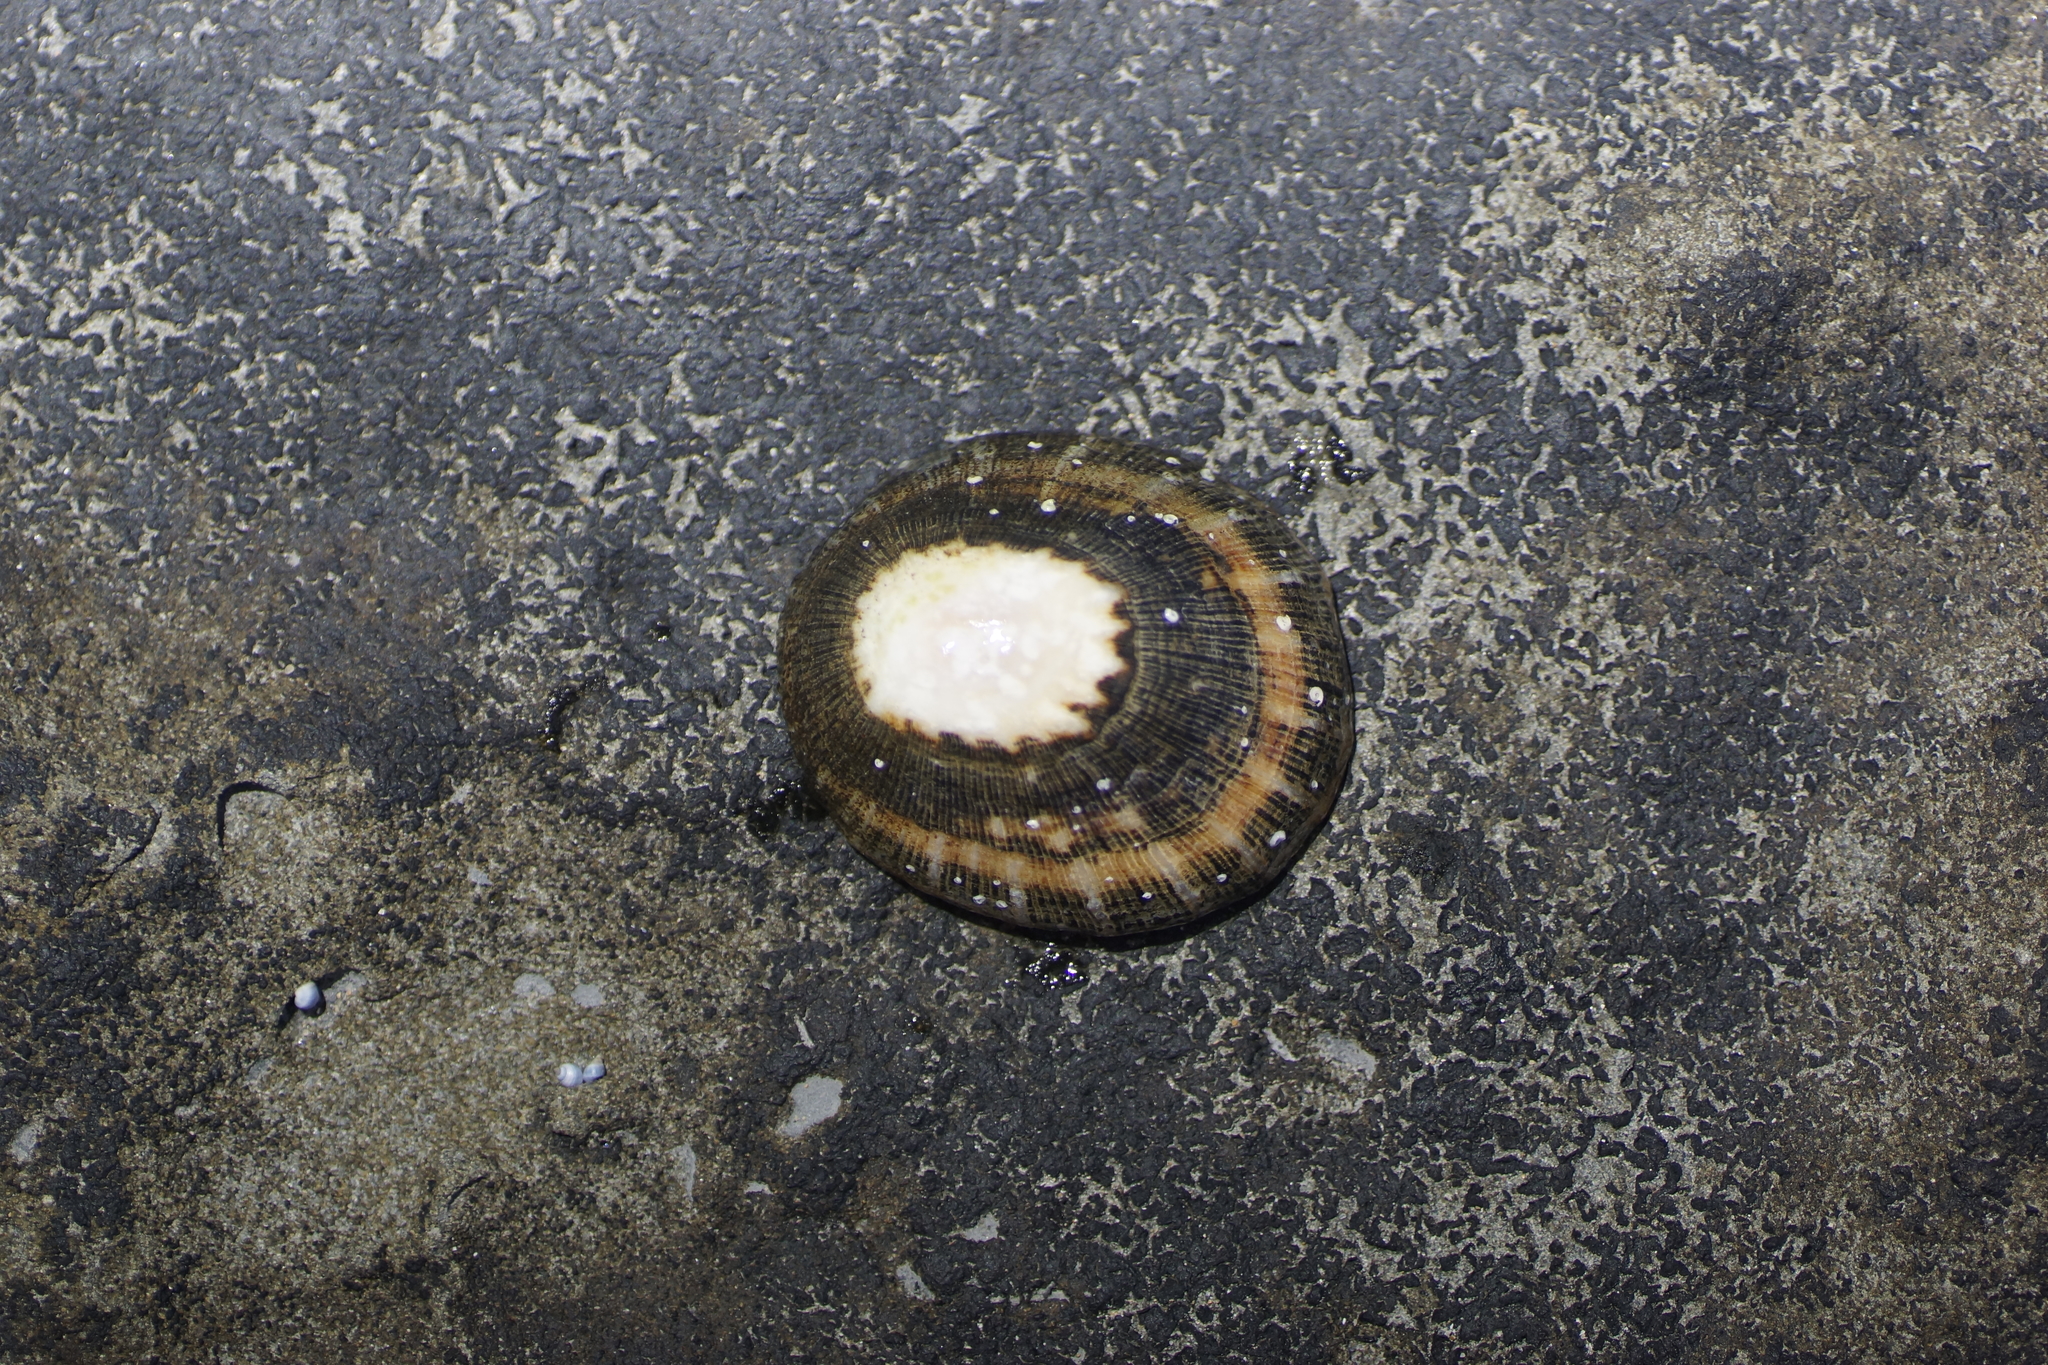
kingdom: Animalia
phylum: Mollusca
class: Gastropoda
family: Patellidae
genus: Scutellastra
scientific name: Scutellastra peronii
